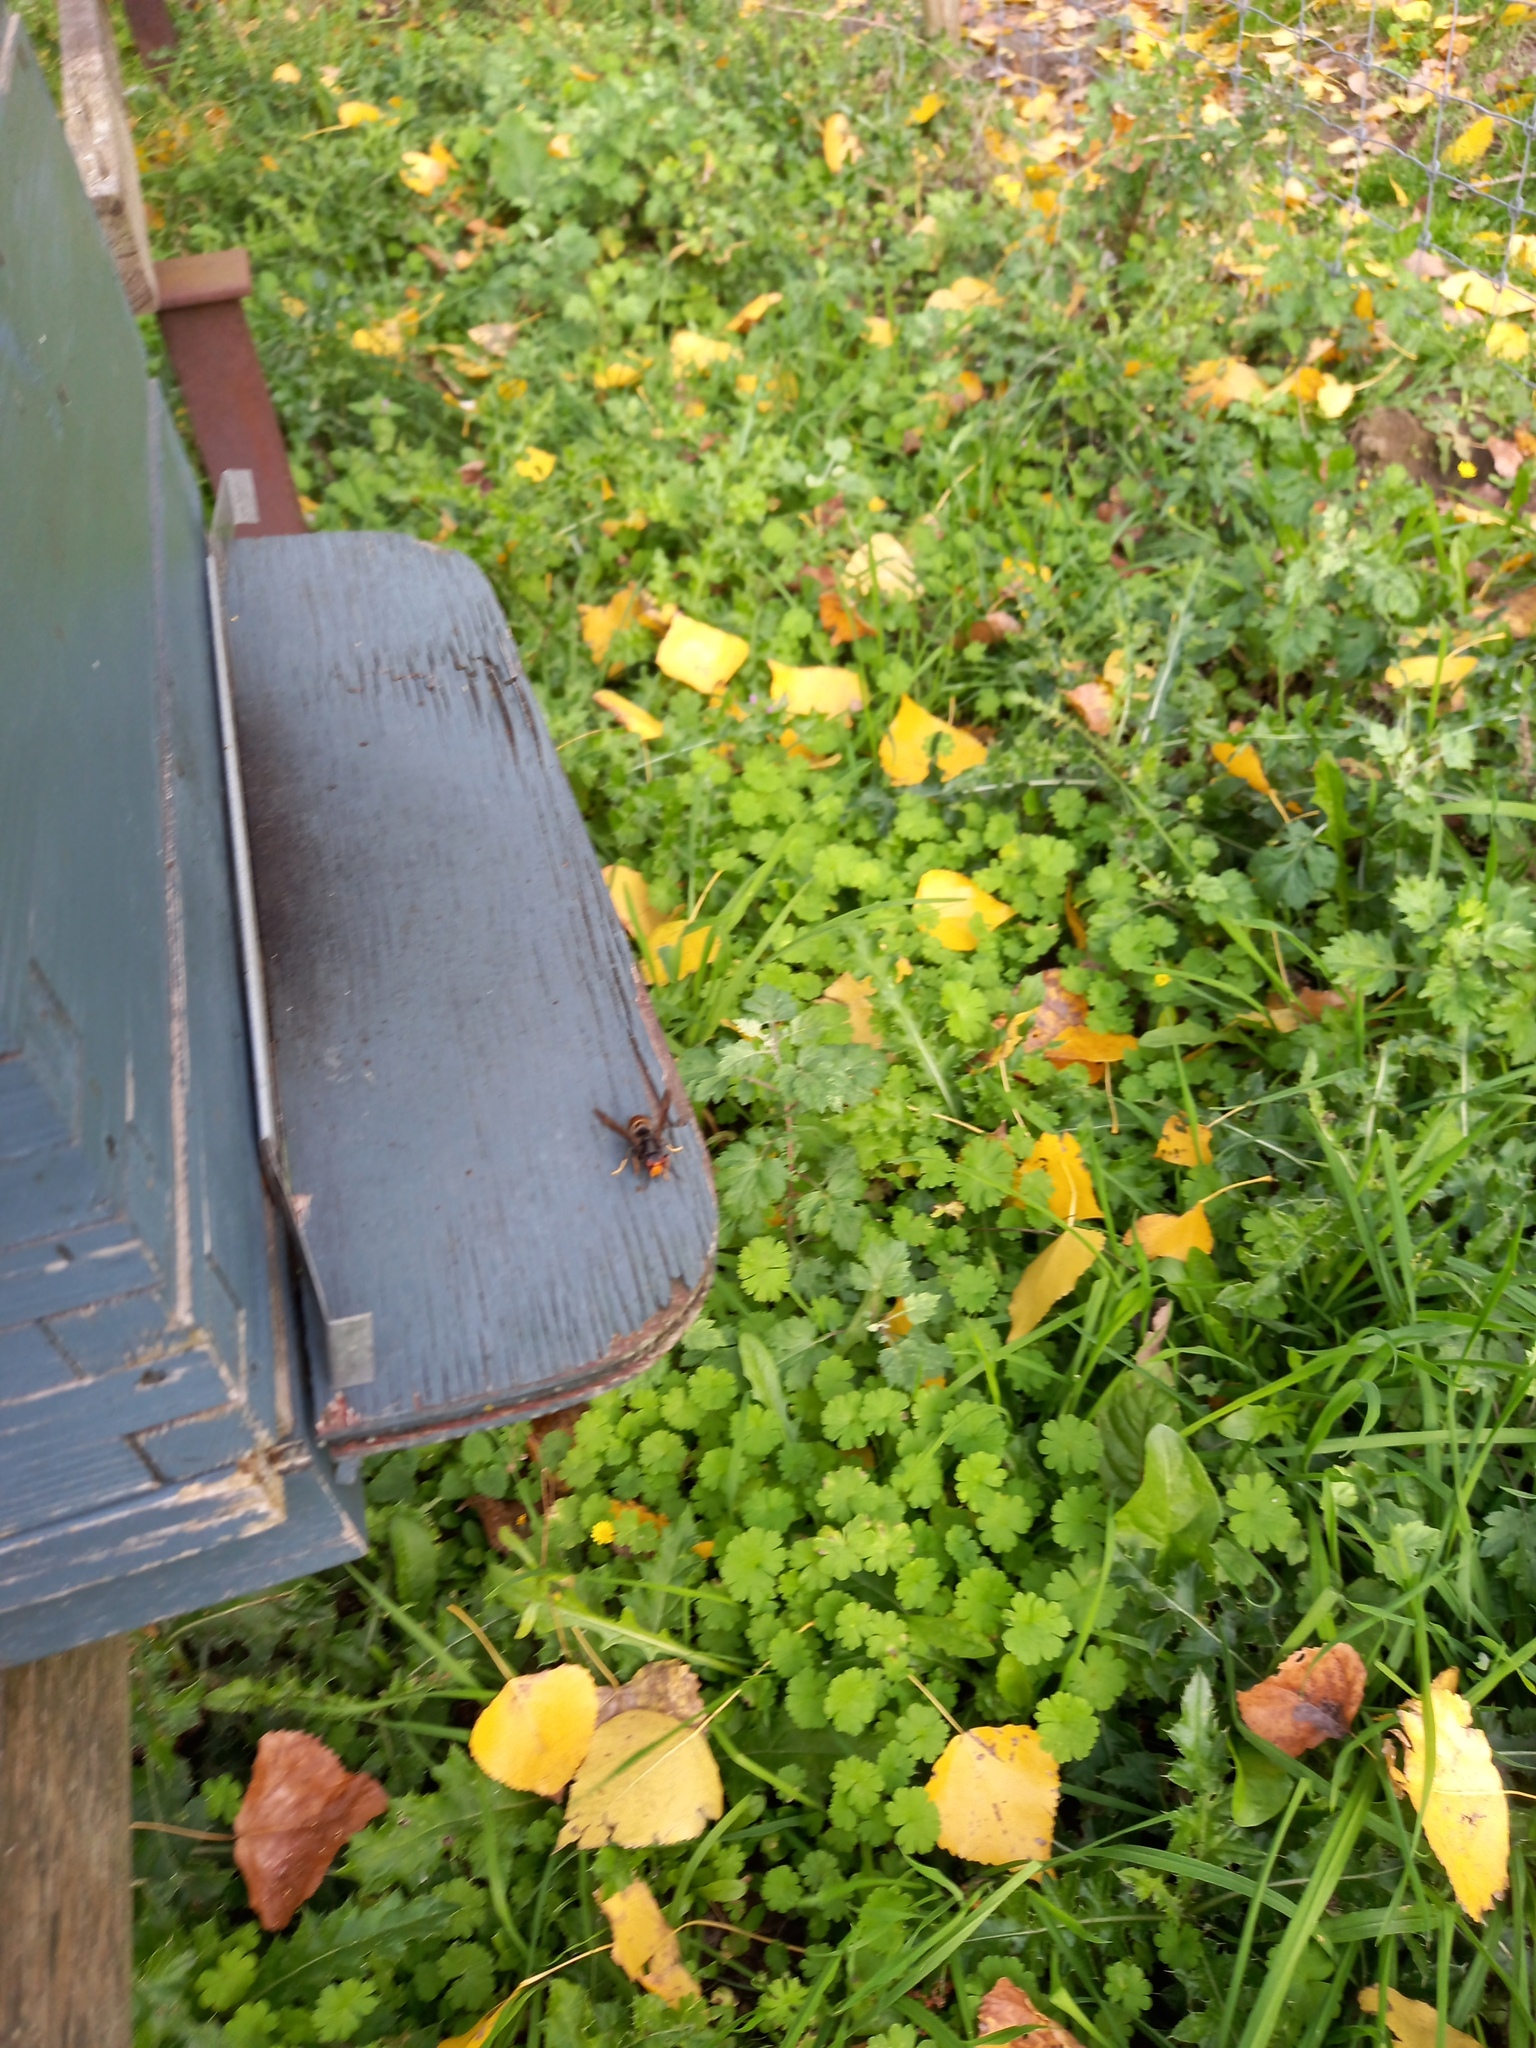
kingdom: Animalia
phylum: Arthropoda
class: Insecta
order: Hymenoptera
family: Vespidae
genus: Vespa
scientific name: Vespa velutina
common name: Asian hornet
